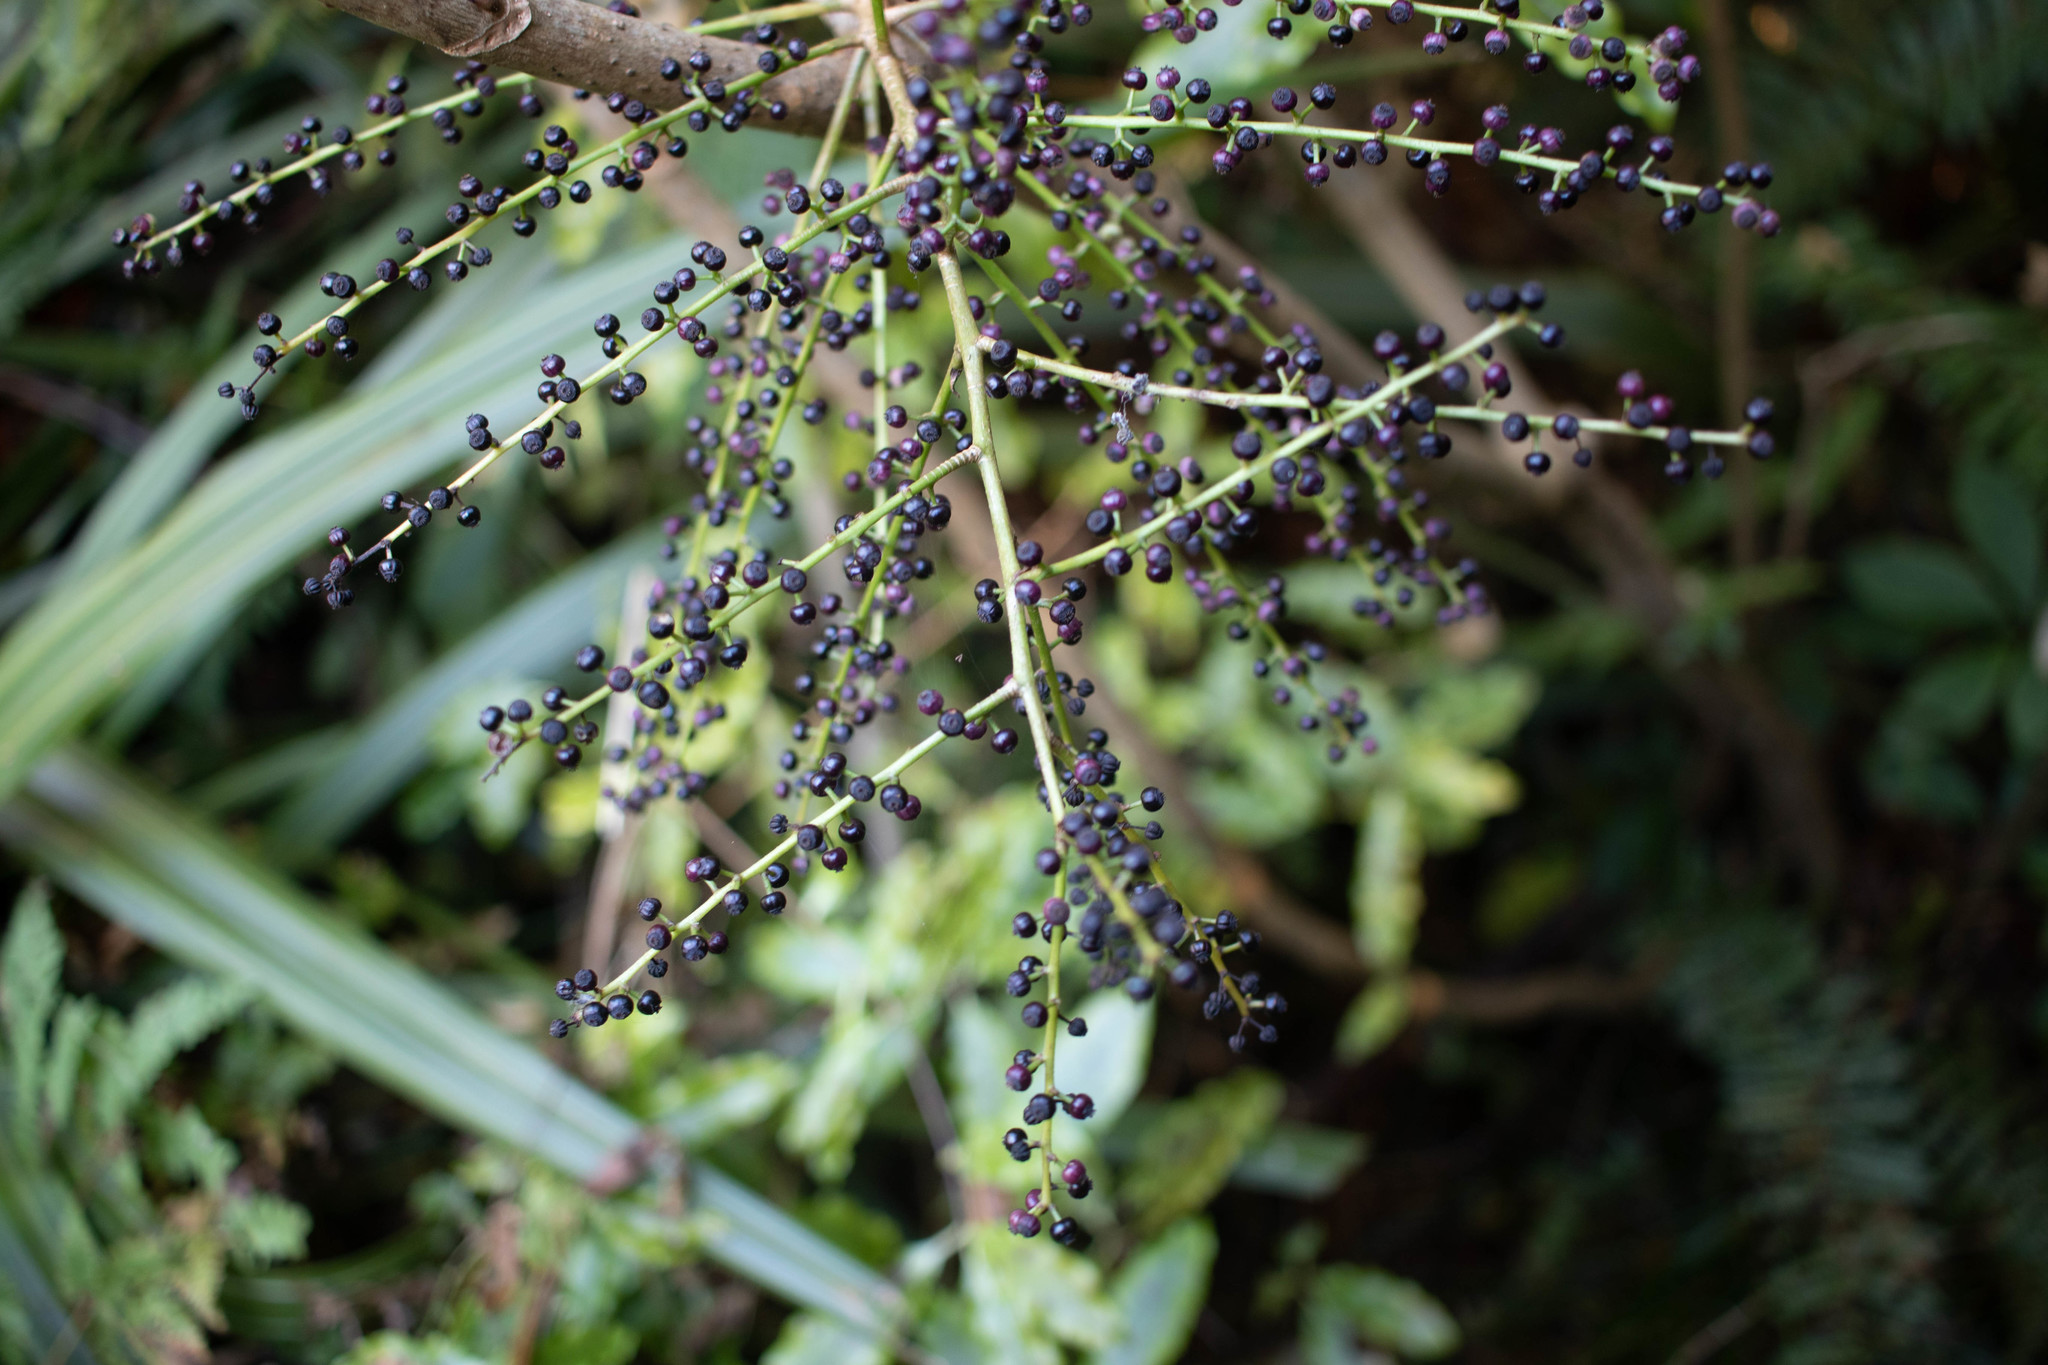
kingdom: Plantae
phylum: Tracheophyta
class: Magnoliopsida
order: Apiales
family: Araliaceae
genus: Schefflera
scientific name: Schefflera digitata
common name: Pate
